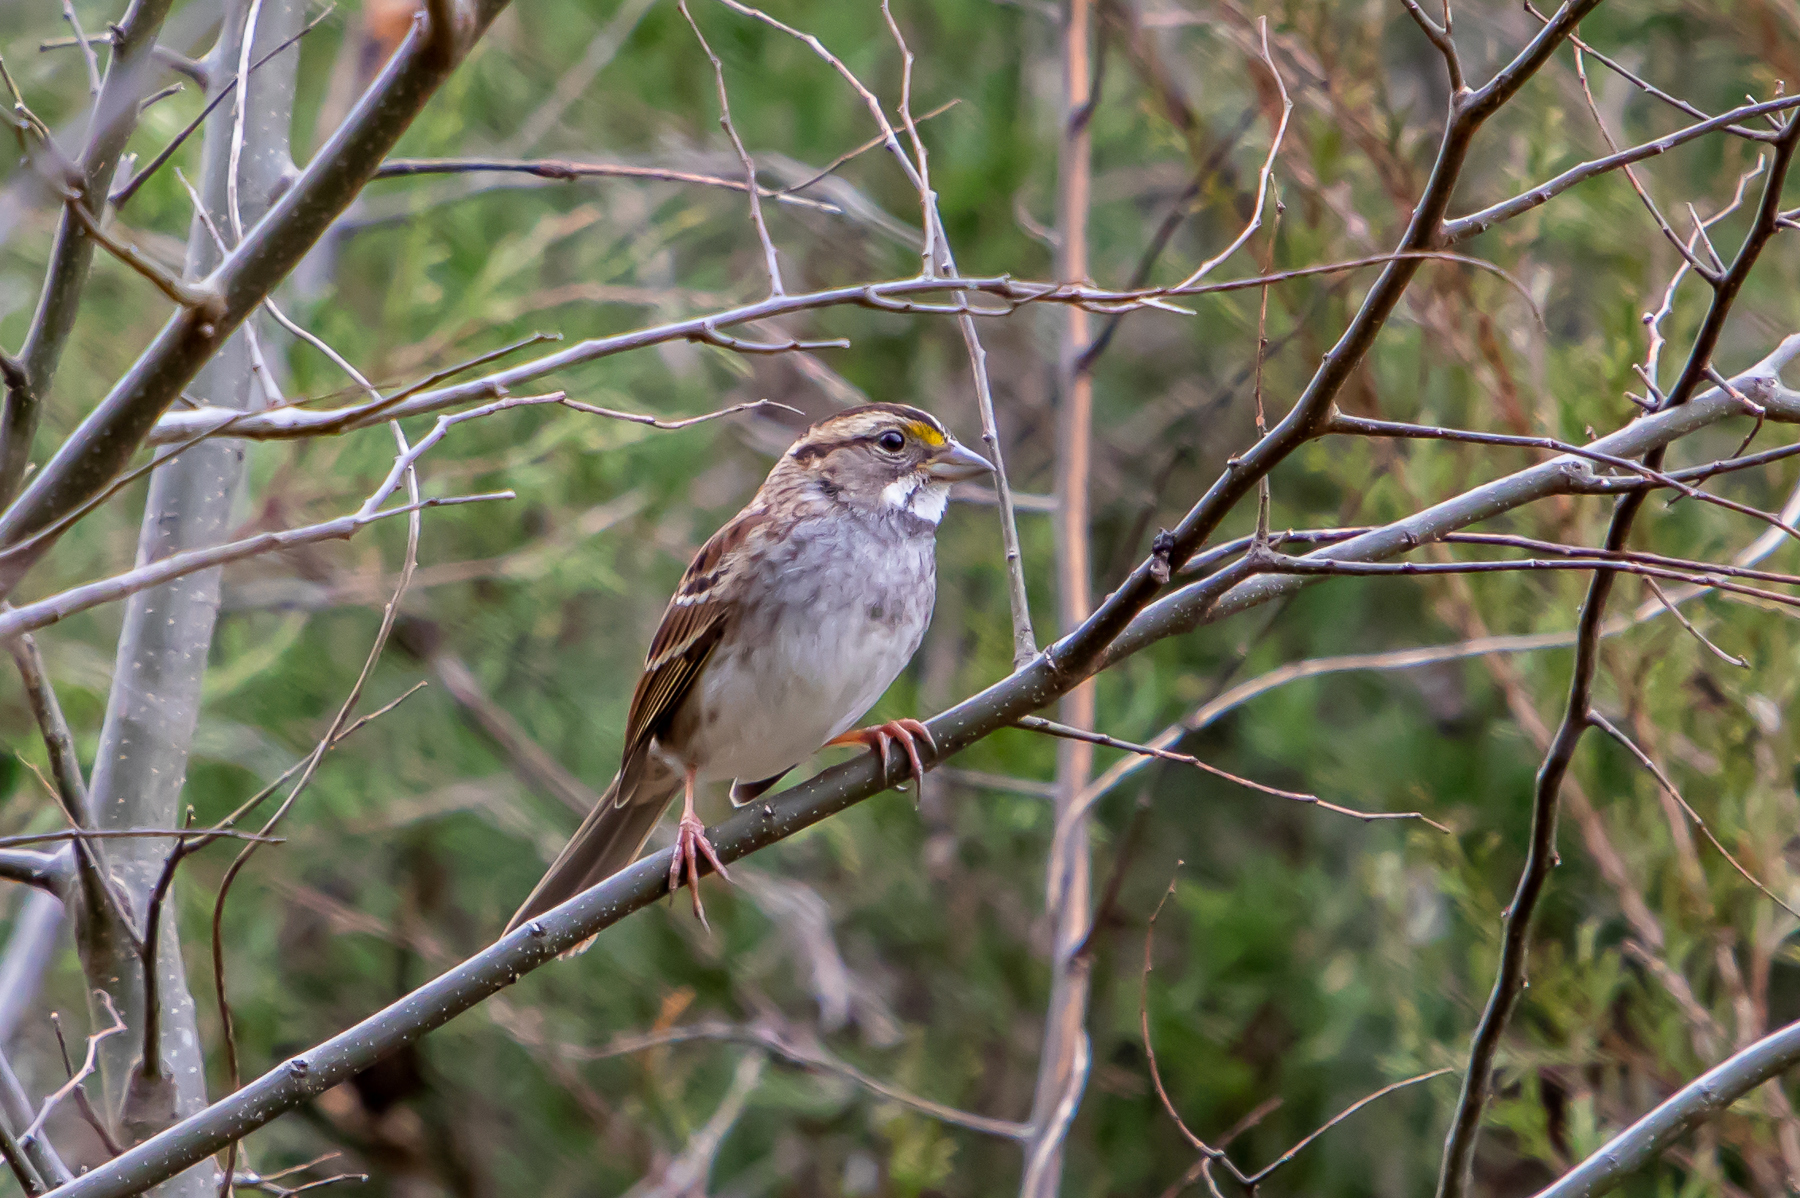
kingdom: Animalia
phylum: Chordata
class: Aves
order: Passeriformes
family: Passerellidae
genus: Zonotrichia
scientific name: Zonotrichia albicollis
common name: White-throated sparrow
